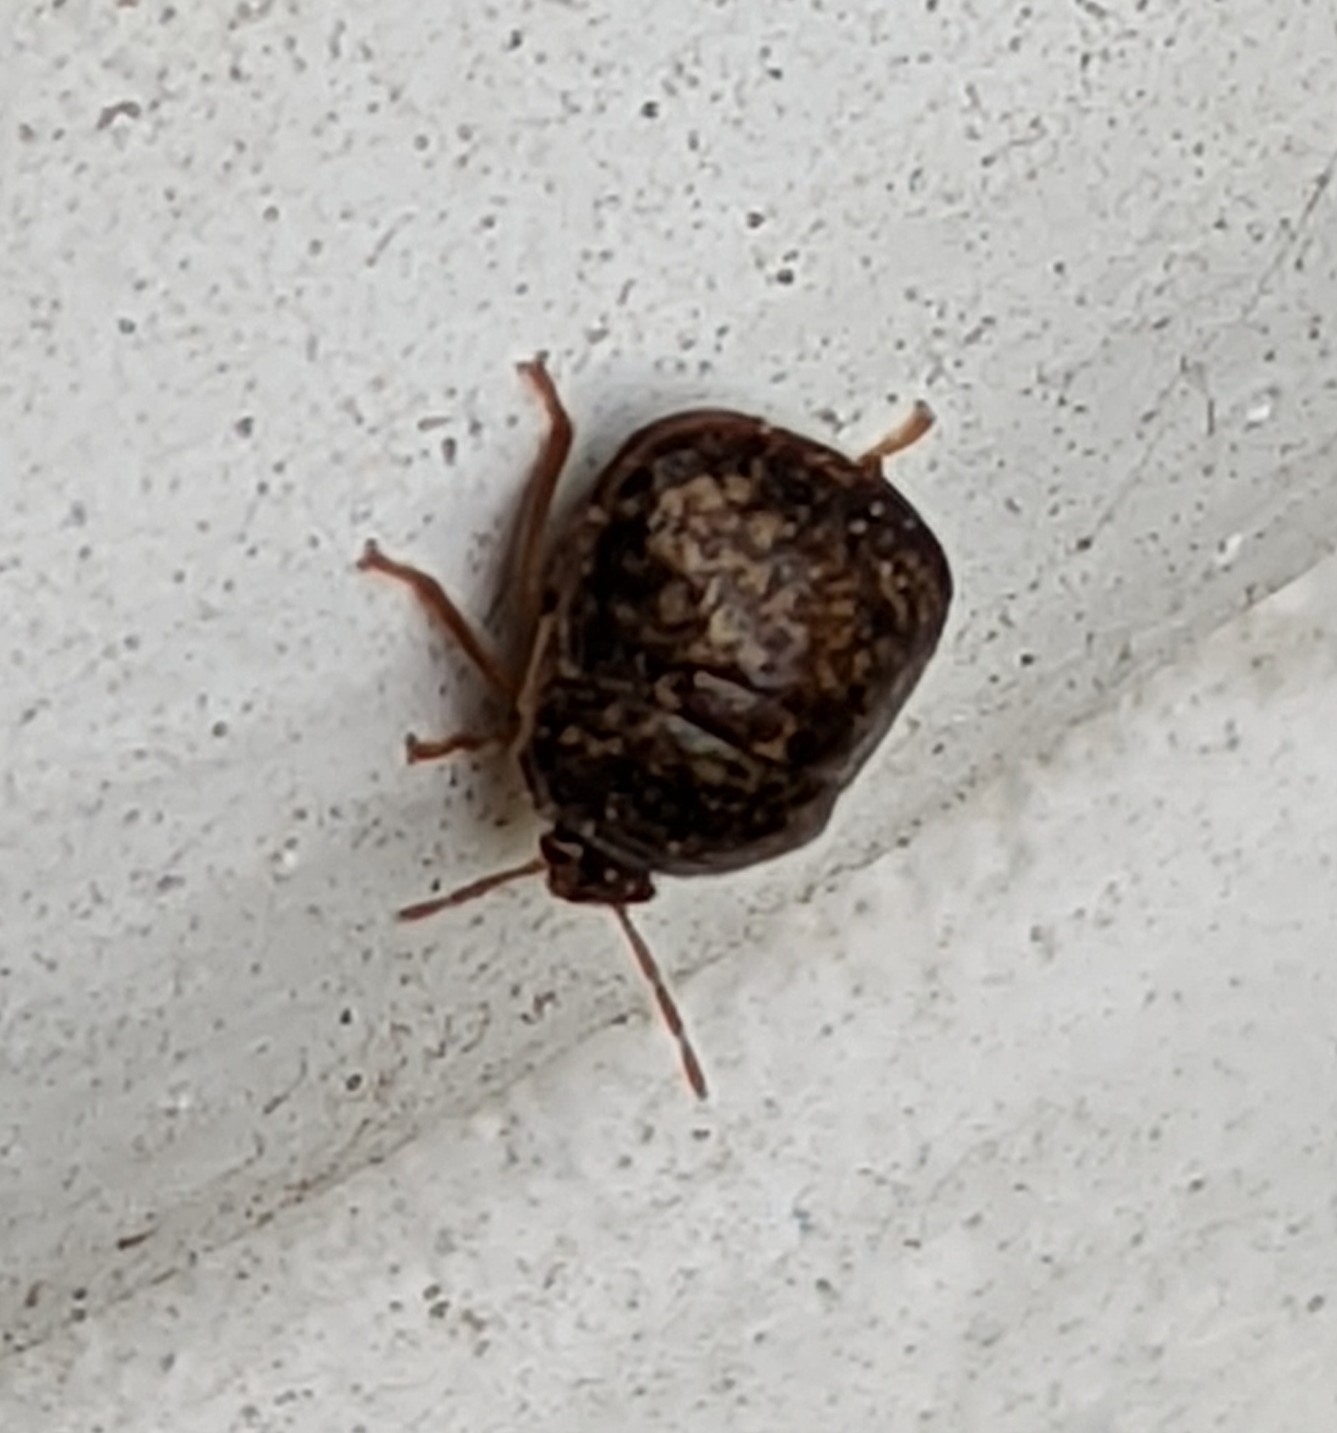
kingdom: Animalia
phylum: Arthropoda
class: Insecta
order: Hemiptera
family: Plataspidae
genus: Megacopta
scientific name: Megacopta cribraria
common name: Bean plataspid
